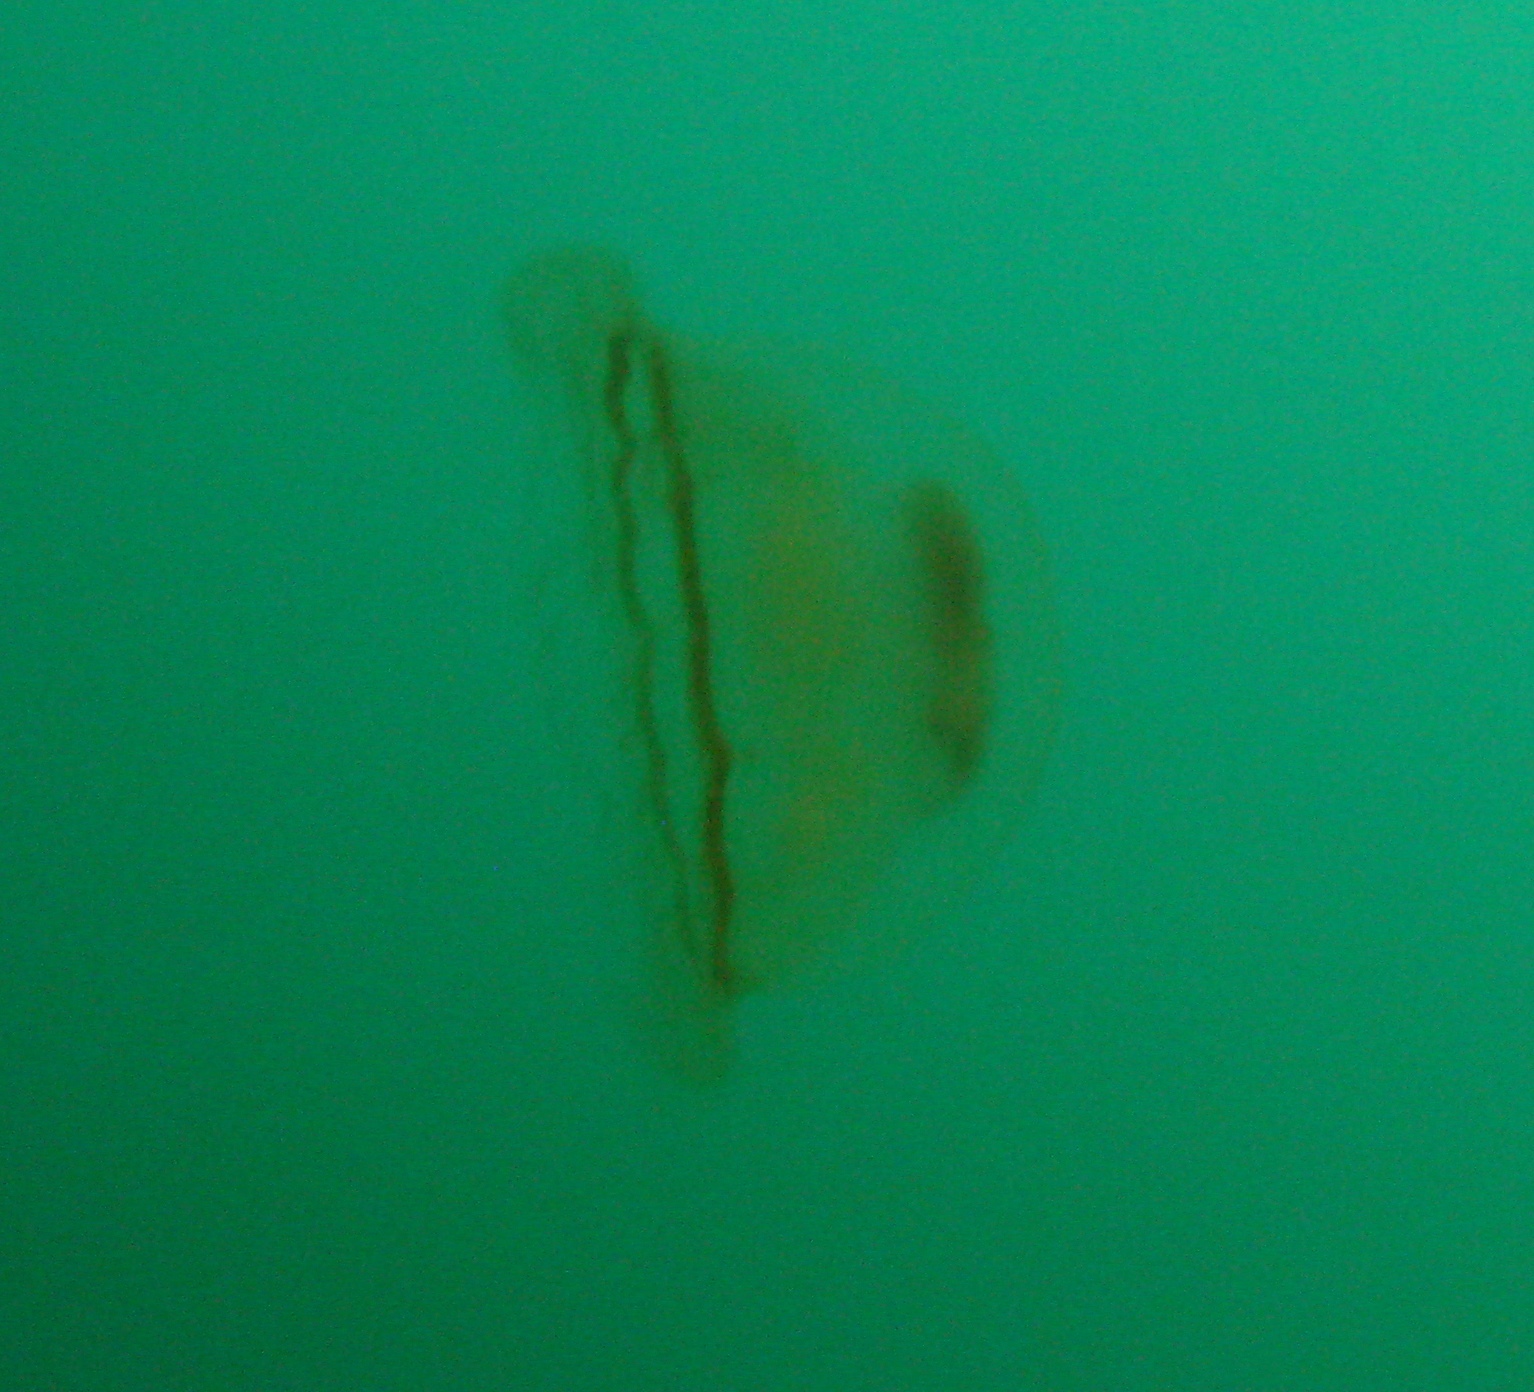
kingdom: Animalia
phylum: Cnidaria
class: Scyphozoa
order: Semaeostomeae
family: Ulmaridae
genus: Aurelia
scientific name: Aurelia limbata
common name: Brown-banded moon jelly
